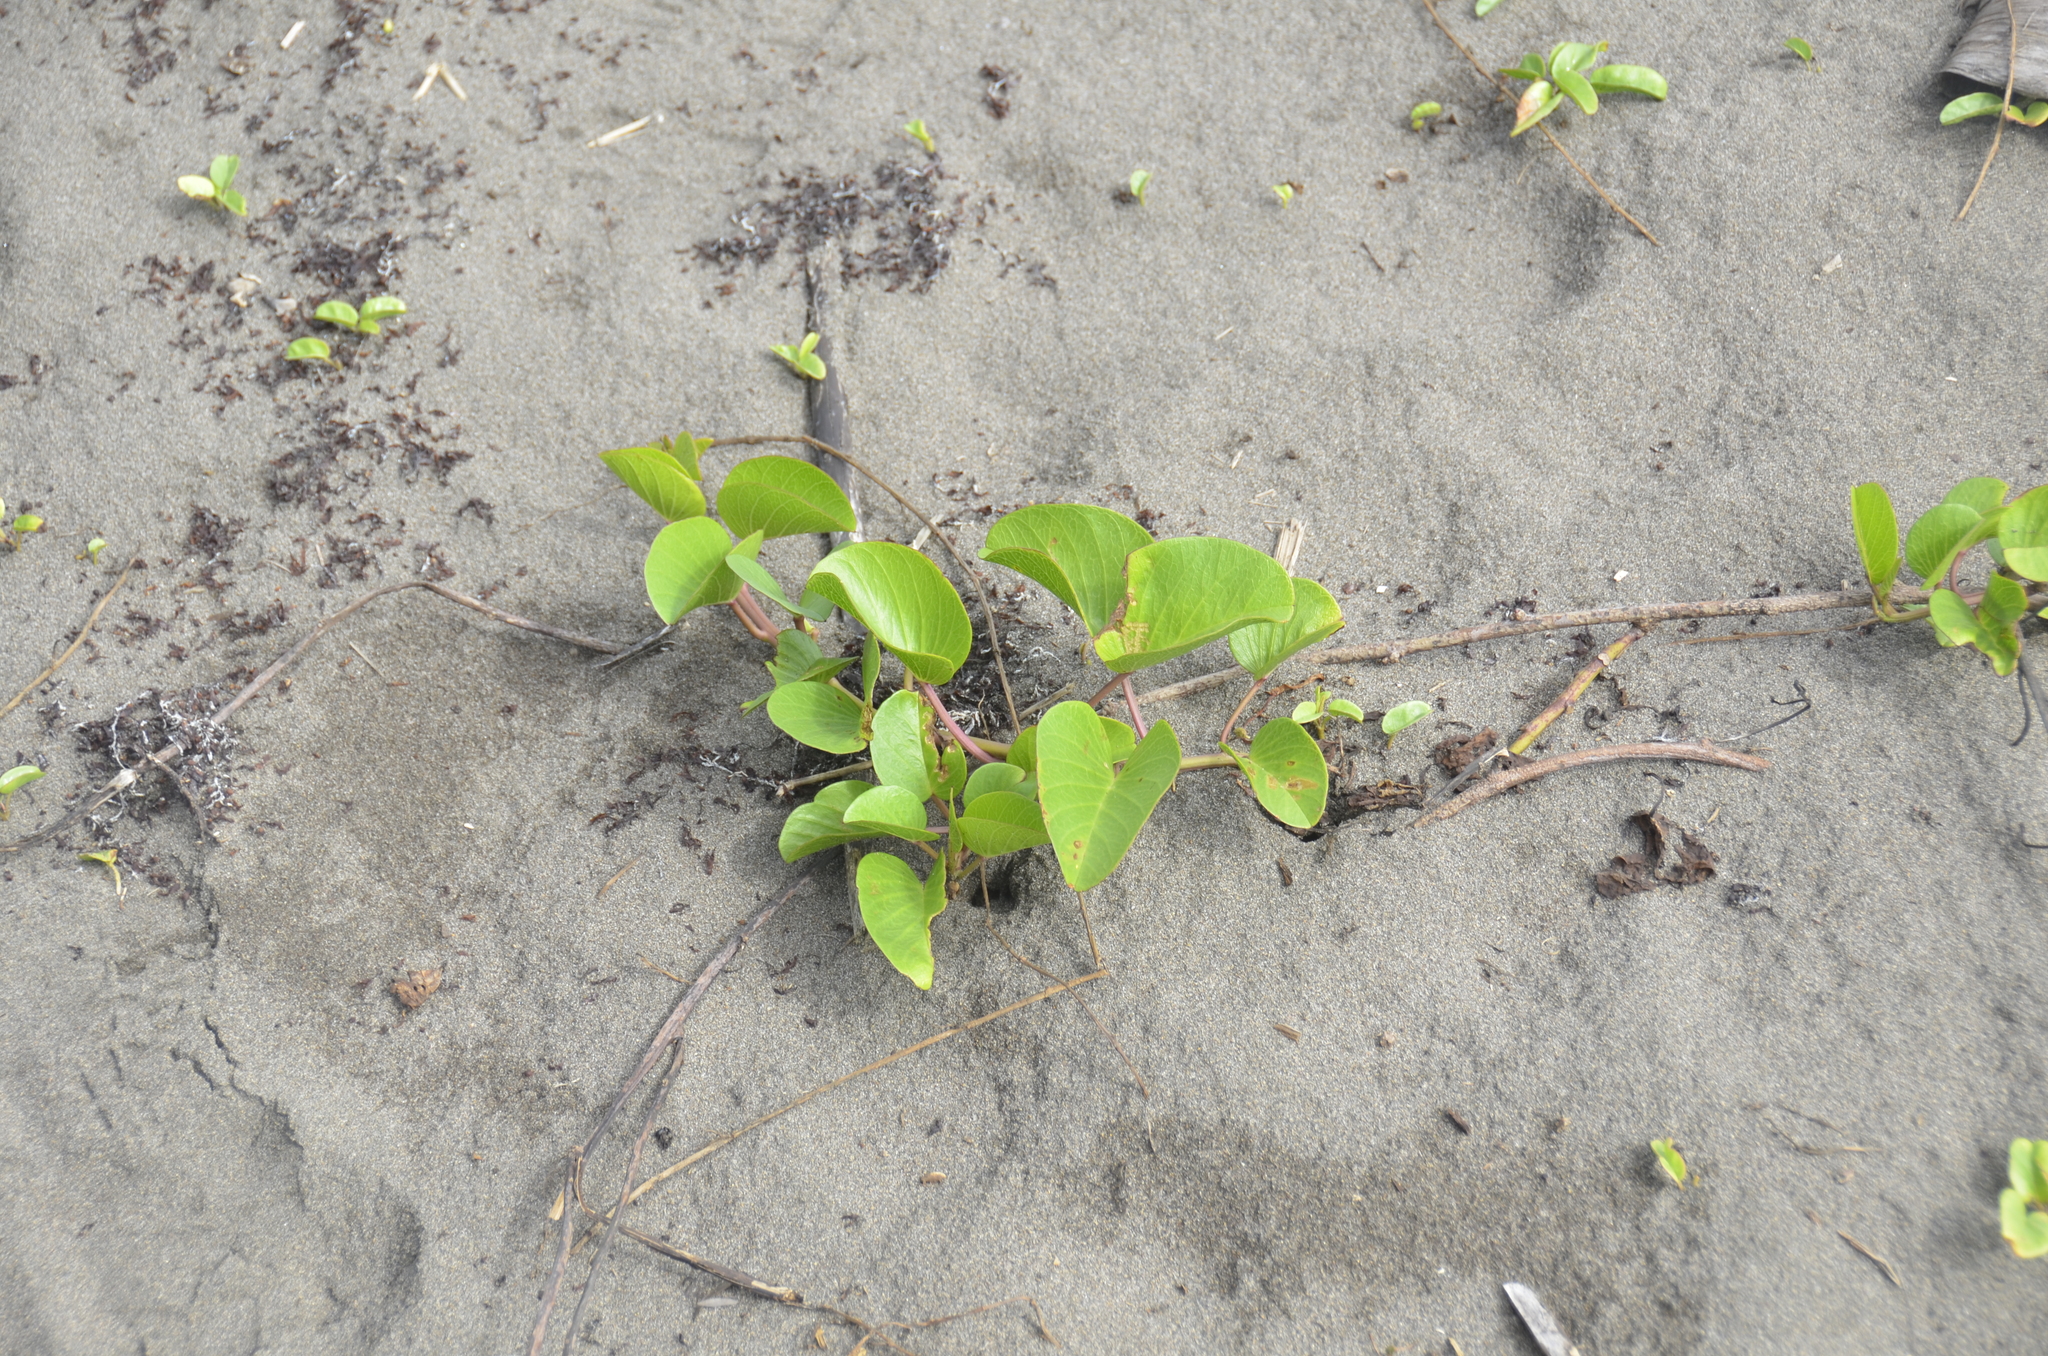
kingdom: Plantae
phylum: Tracheophyta
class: Magnoliopsida
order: Solanales
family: Convolvulaceae
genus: Ipomoea
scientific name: Ipomoea pes-caprae
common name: Beach morning glory
